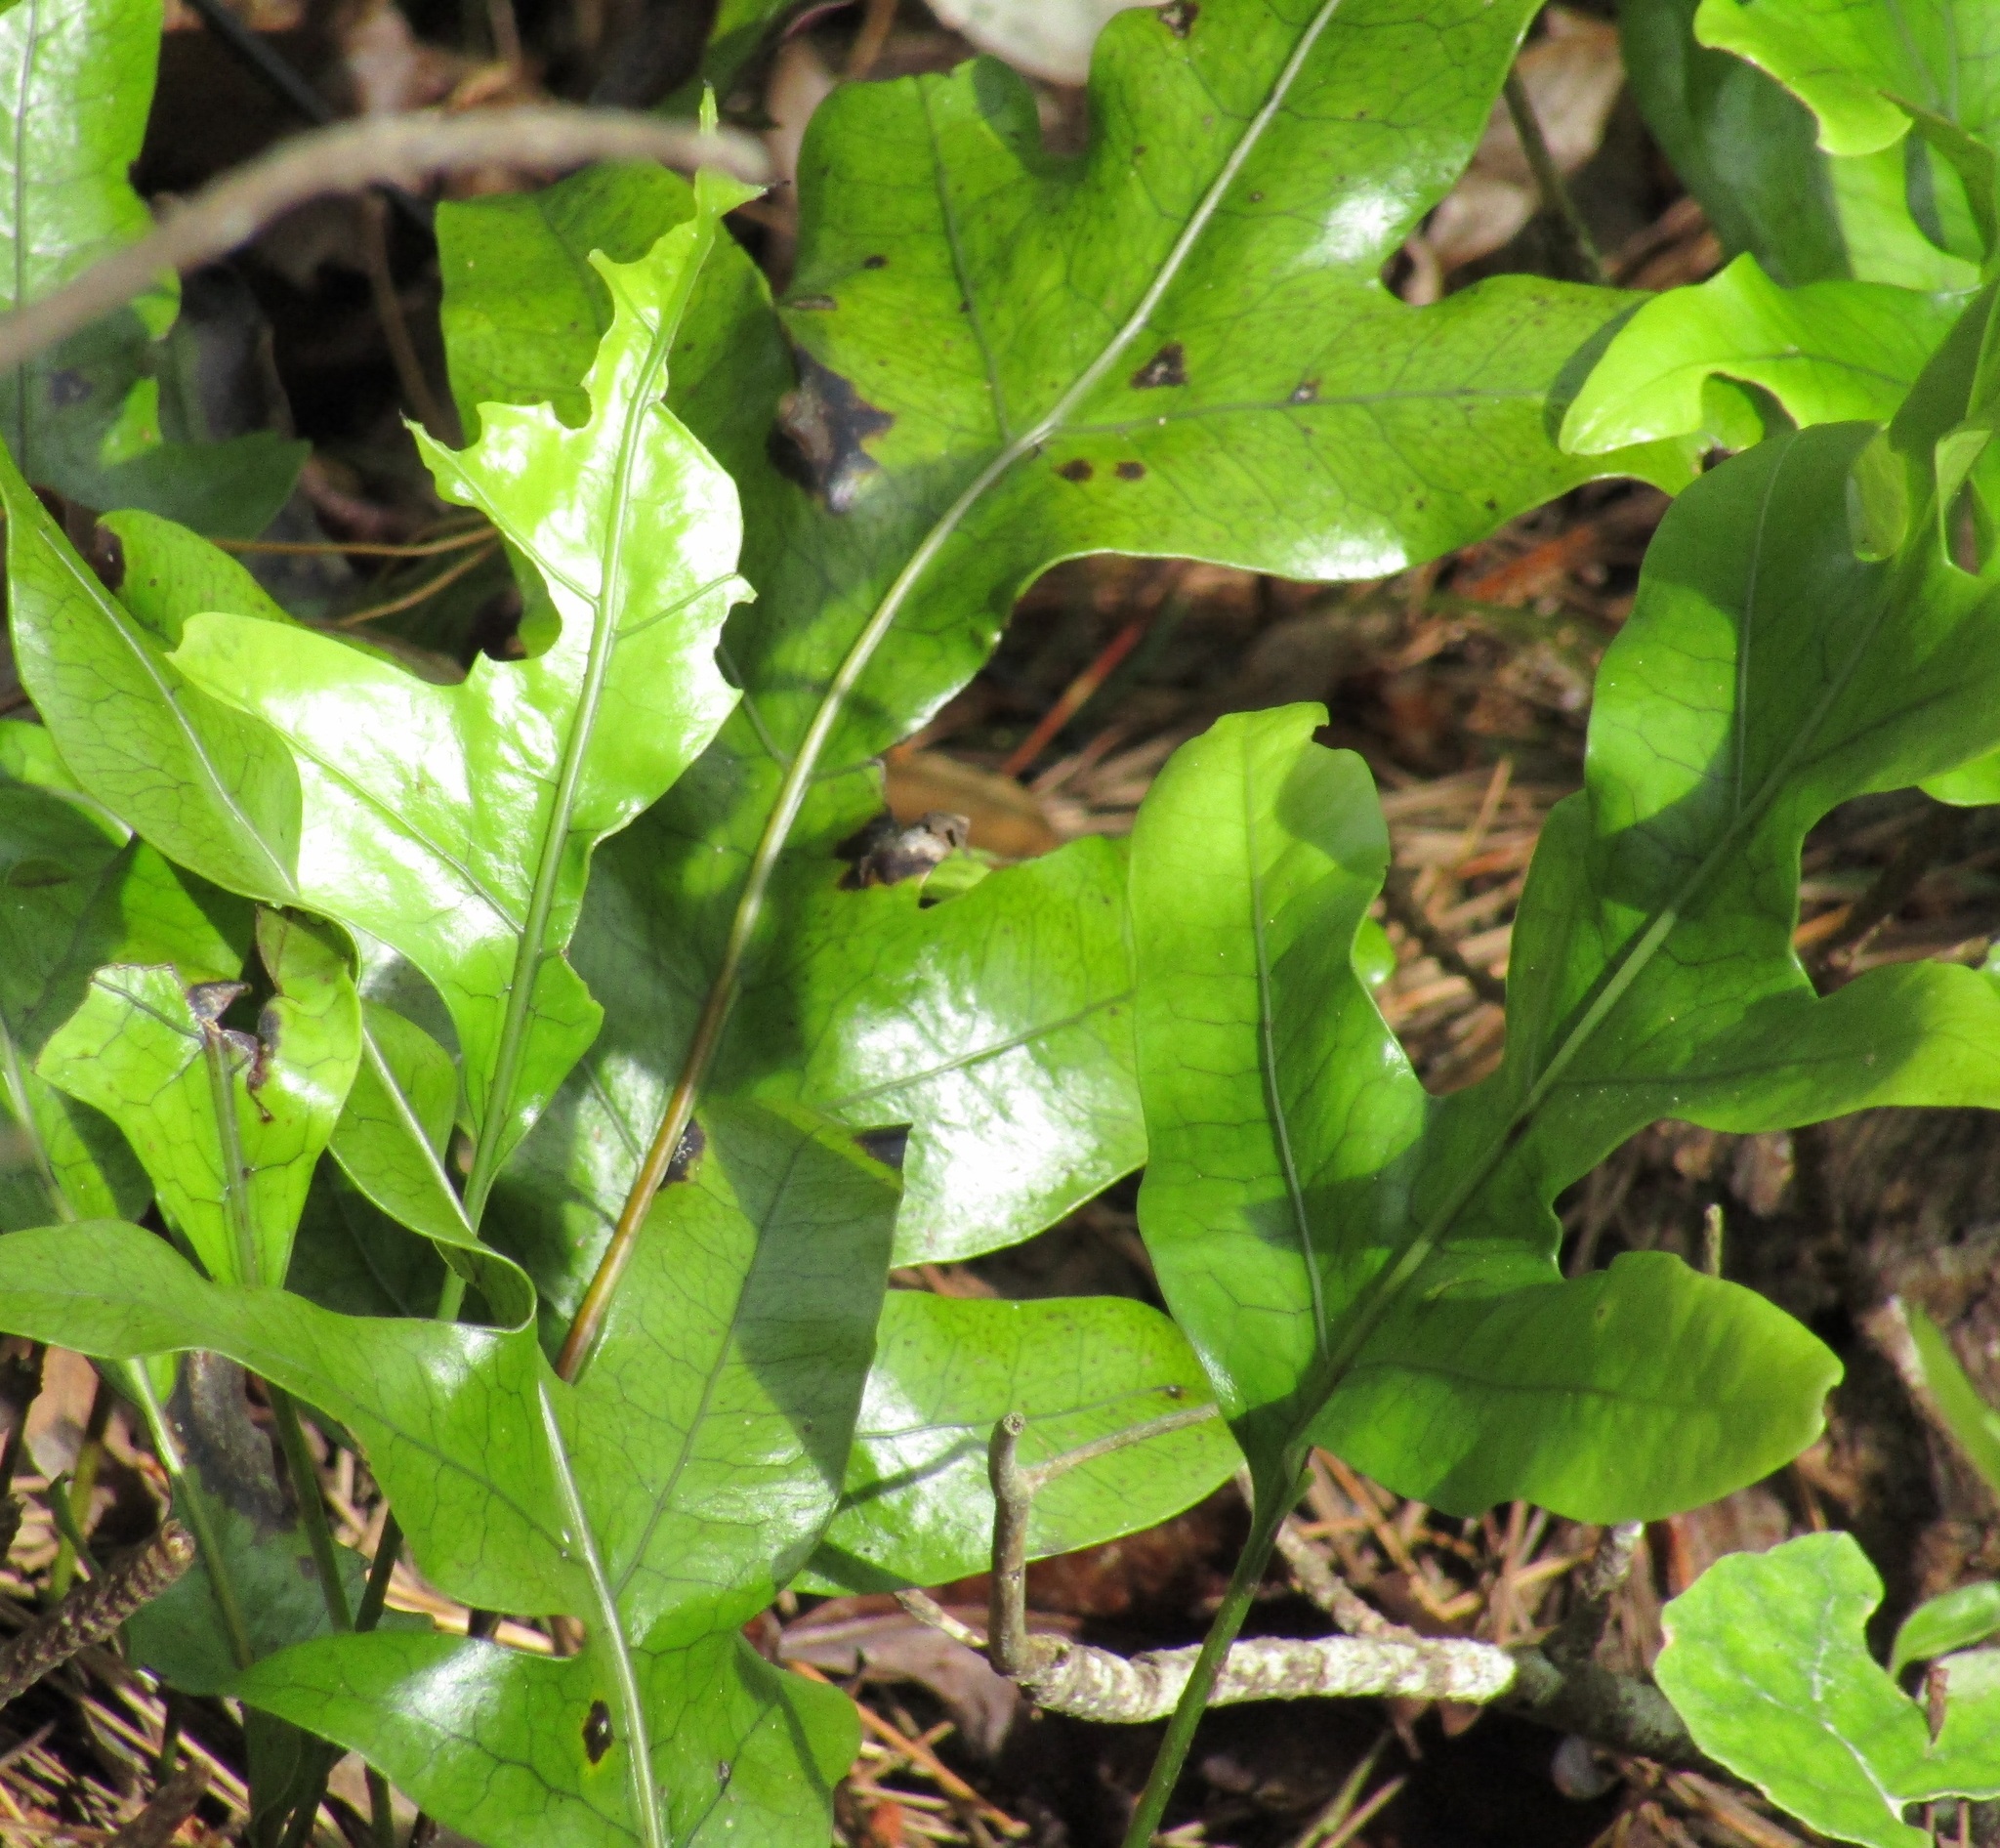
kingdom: Plantae
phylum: Tracheophyta
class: Polypodiopsida
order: Polypodiales
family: Polypodiaceae
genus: Lecanopteris
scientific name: Lecanopteris pustulata
